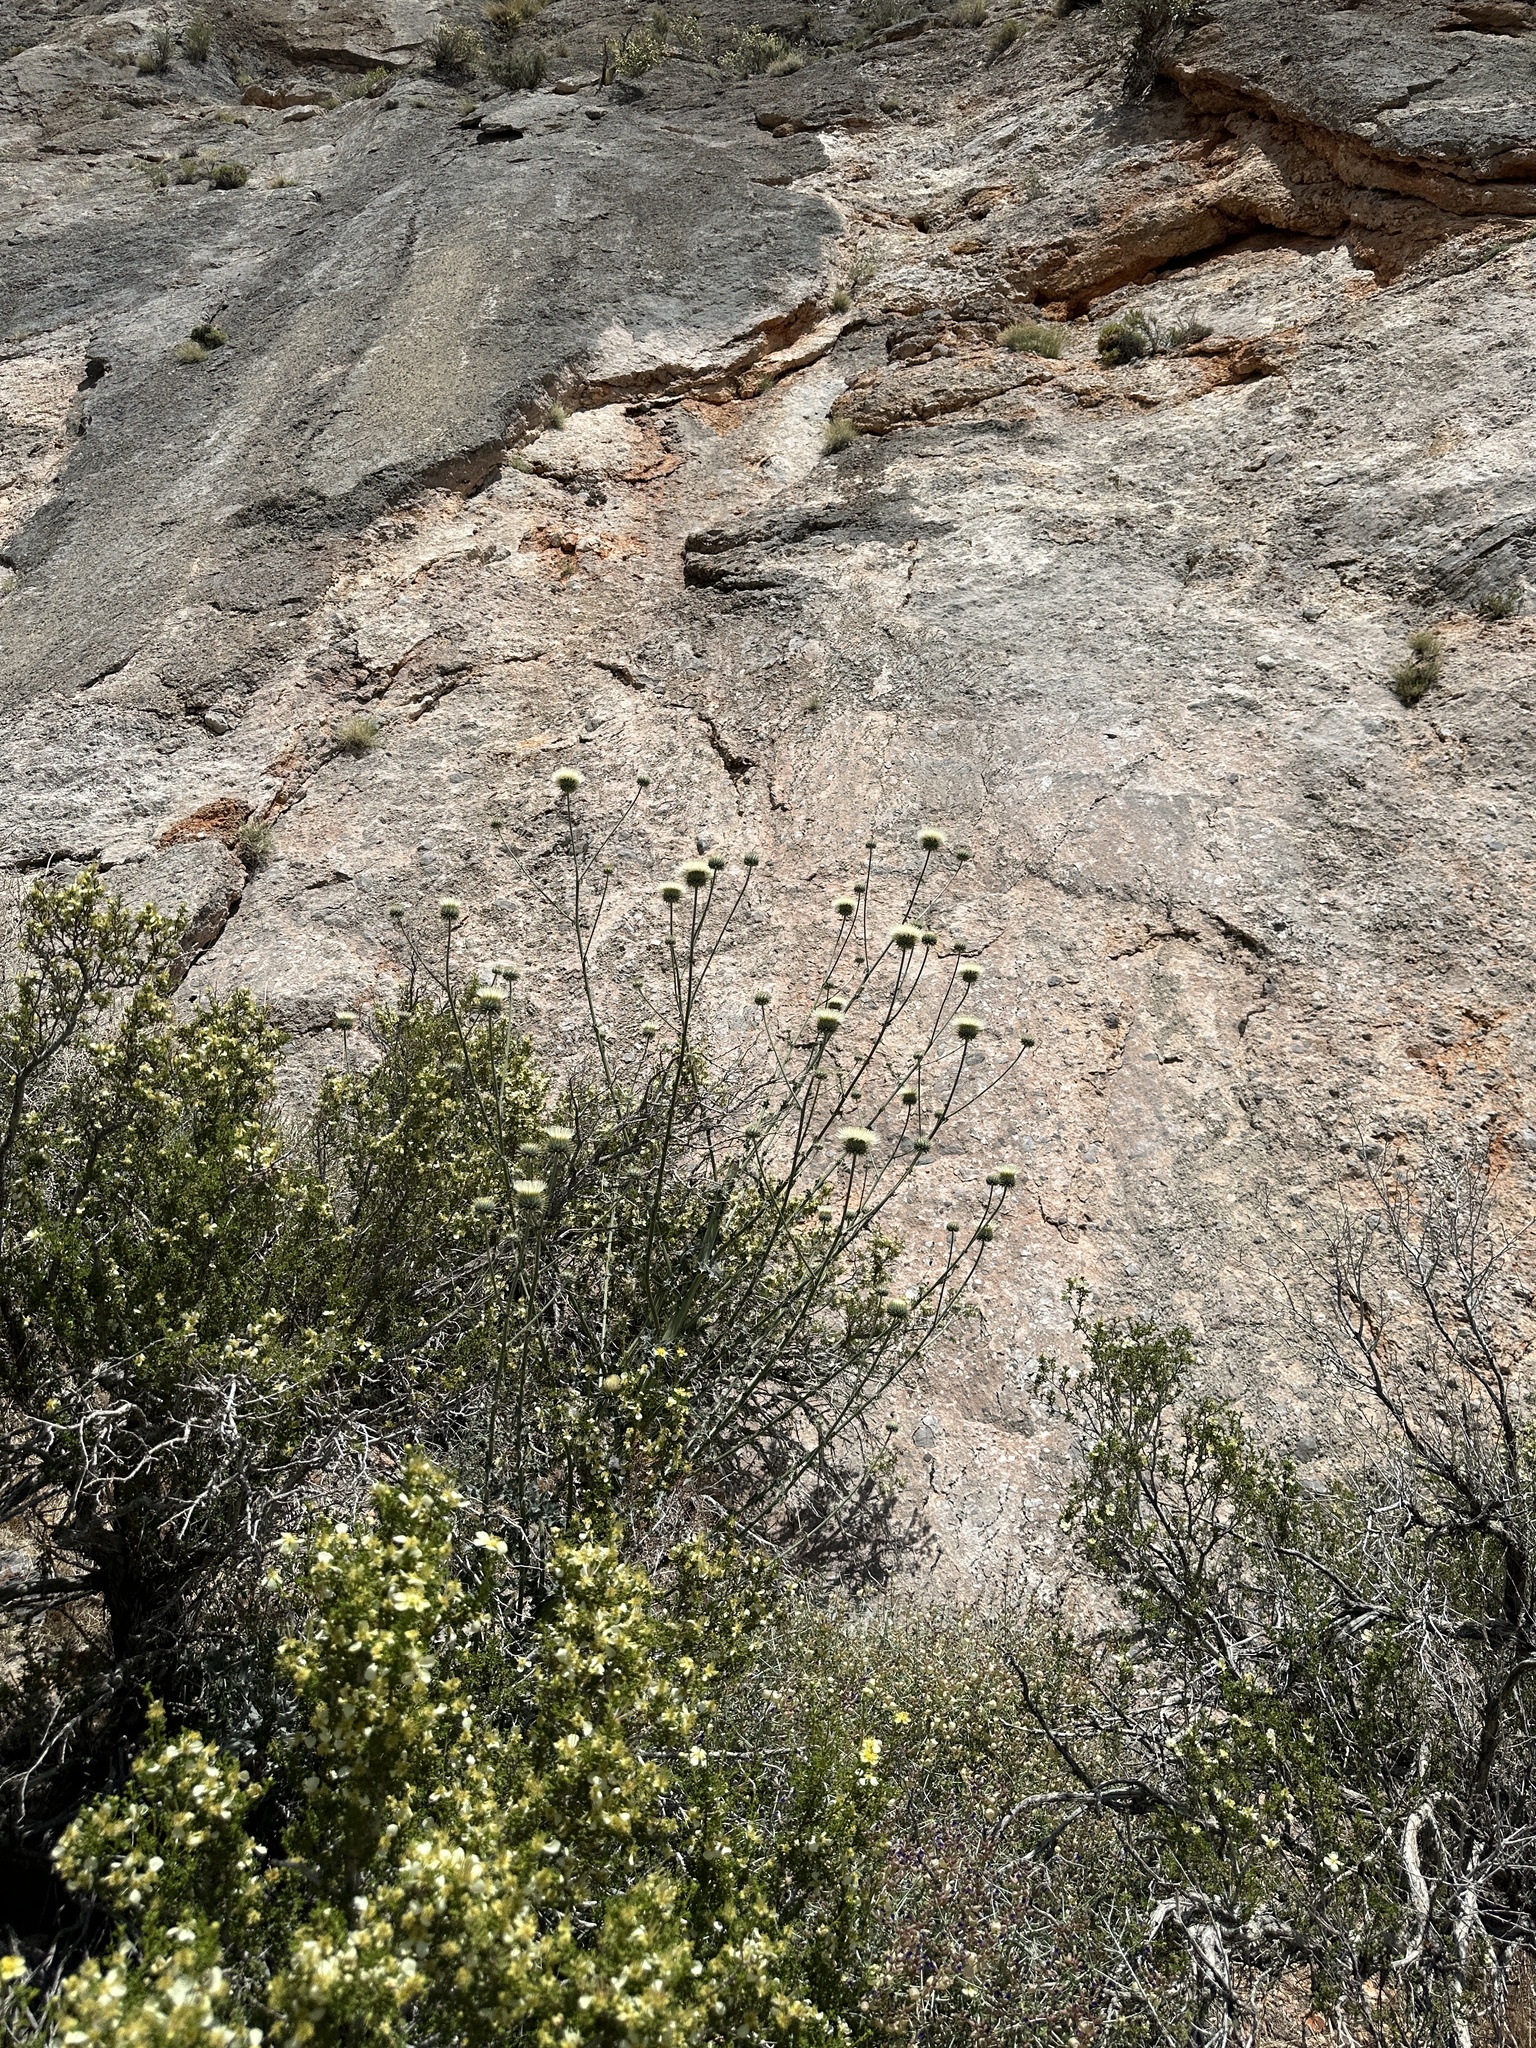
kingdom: Plantae
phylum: Tracheophyta
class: Magnoliopsida
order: Asterales
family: Asteraceae
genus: Cirsium
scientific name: Cirsium neomexicanum
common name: New mexico thistle
